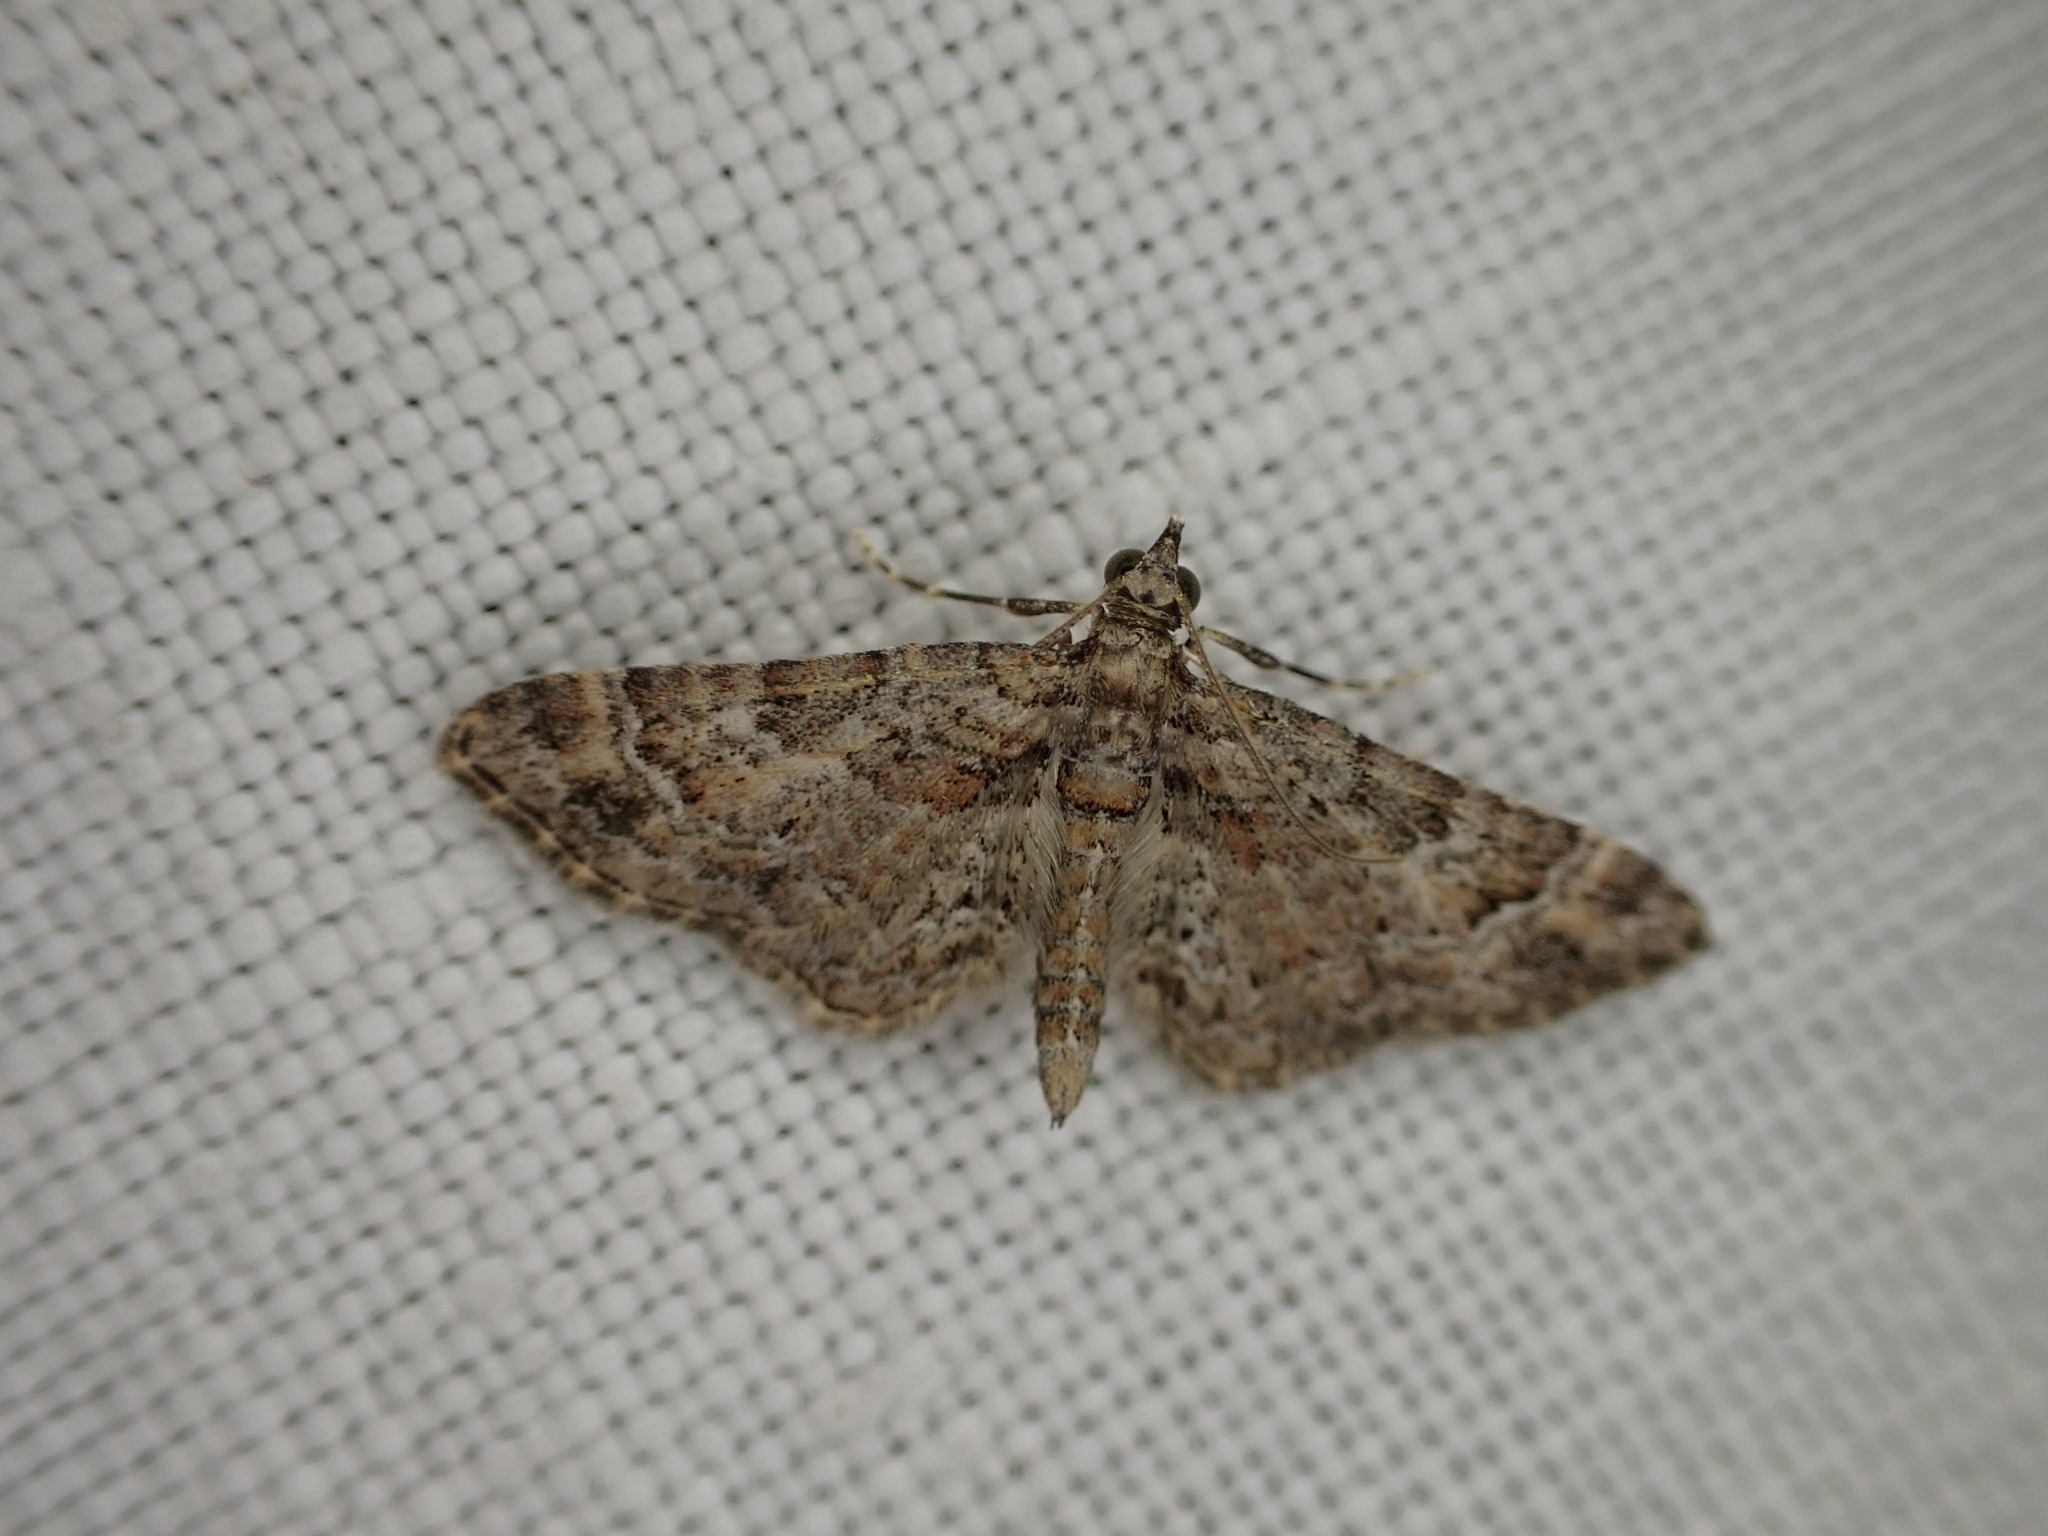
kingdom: Animalia
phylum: Arthropoda
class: Insecta
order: Lepidoptera
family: Geometridae
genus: Gymnoscelis
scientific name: Gymnoscelis rufifasciata
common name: Double-striped pug
